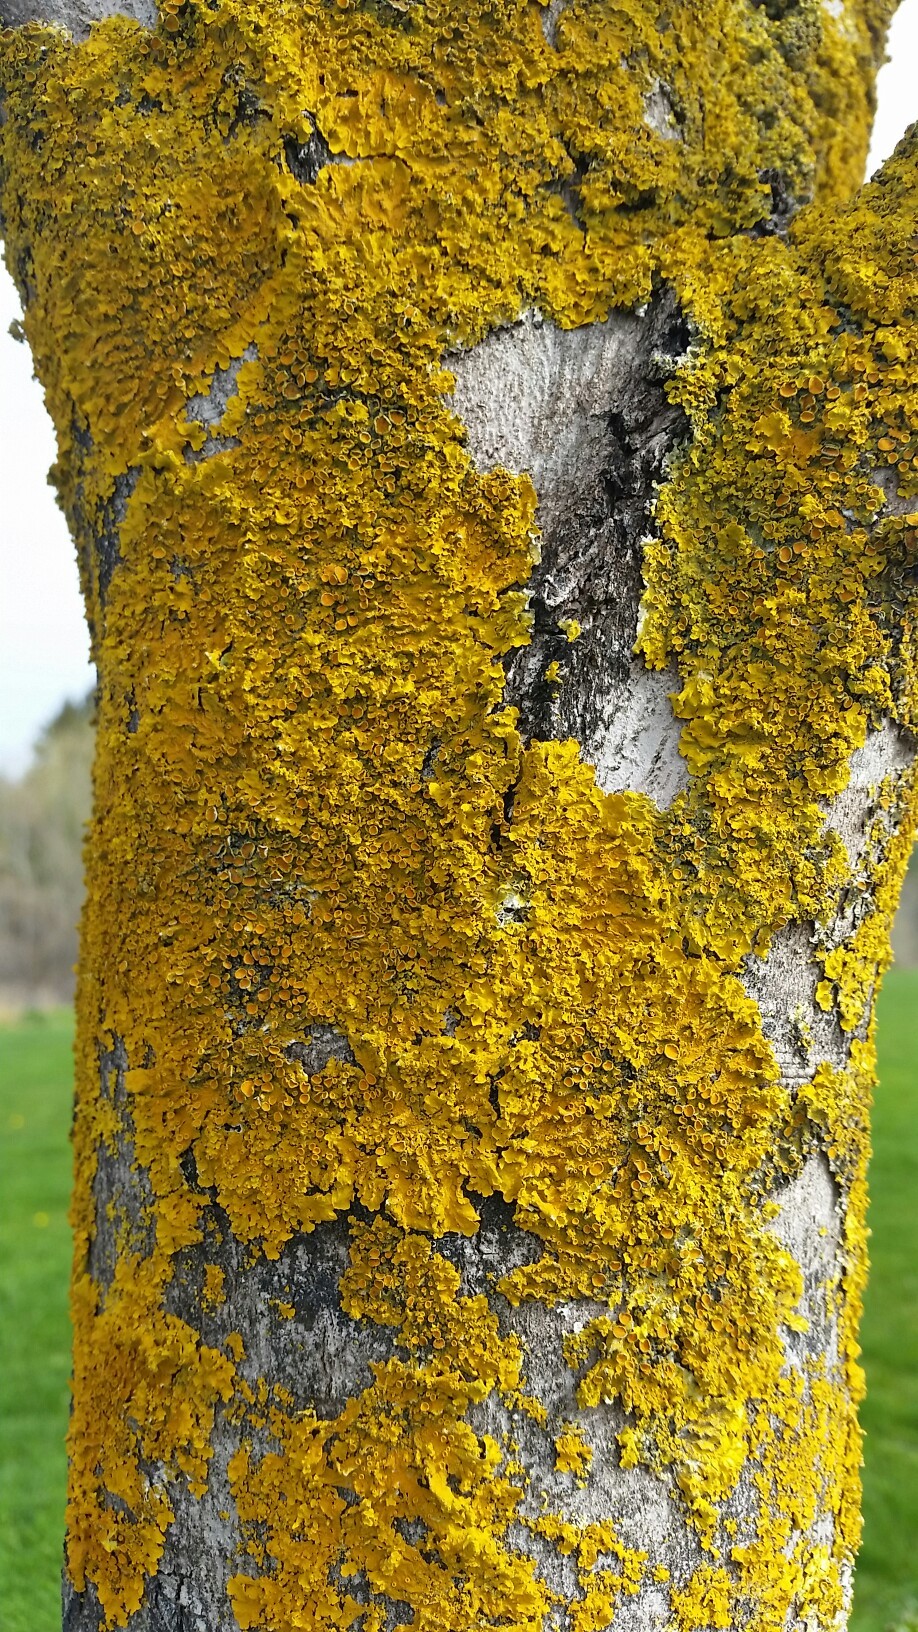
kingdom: Fungi
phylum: Ascomycota
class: Lecanoromycetes
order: Teloschistales
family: Teloschistaceae
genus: Xanthoria
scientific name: Xanthoria parietina
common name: Common orange lichen
